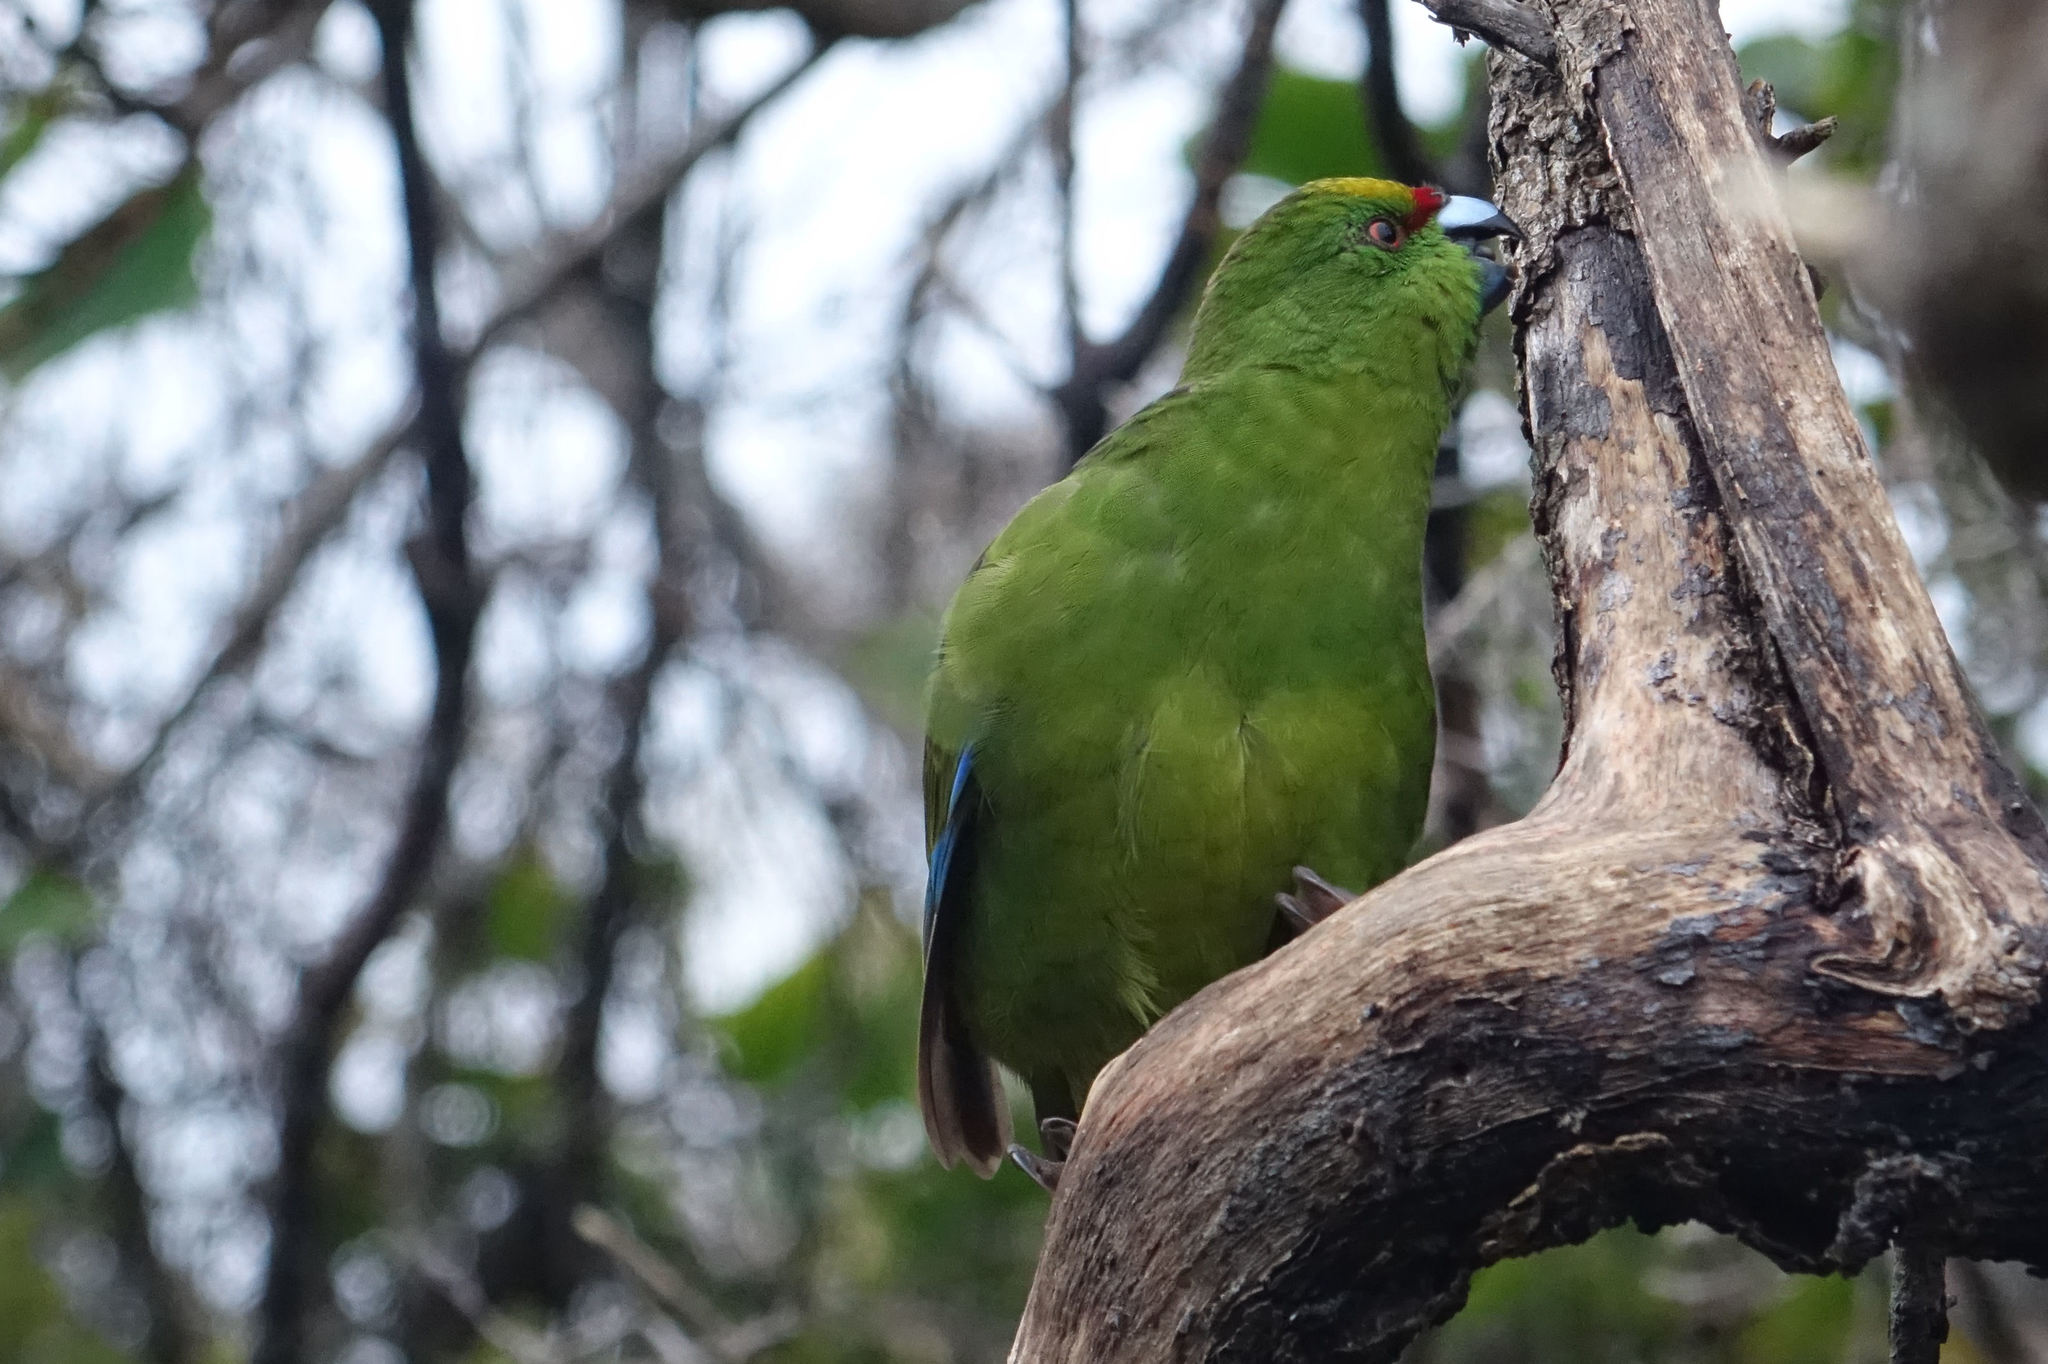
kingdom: Animalia
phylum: Chordata
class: Aves
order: Psittaciformes
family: Psittacidae
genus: Cyanoramphus
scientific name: Cyanoramphus auriceps
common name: Yellow-crowned parakeet
